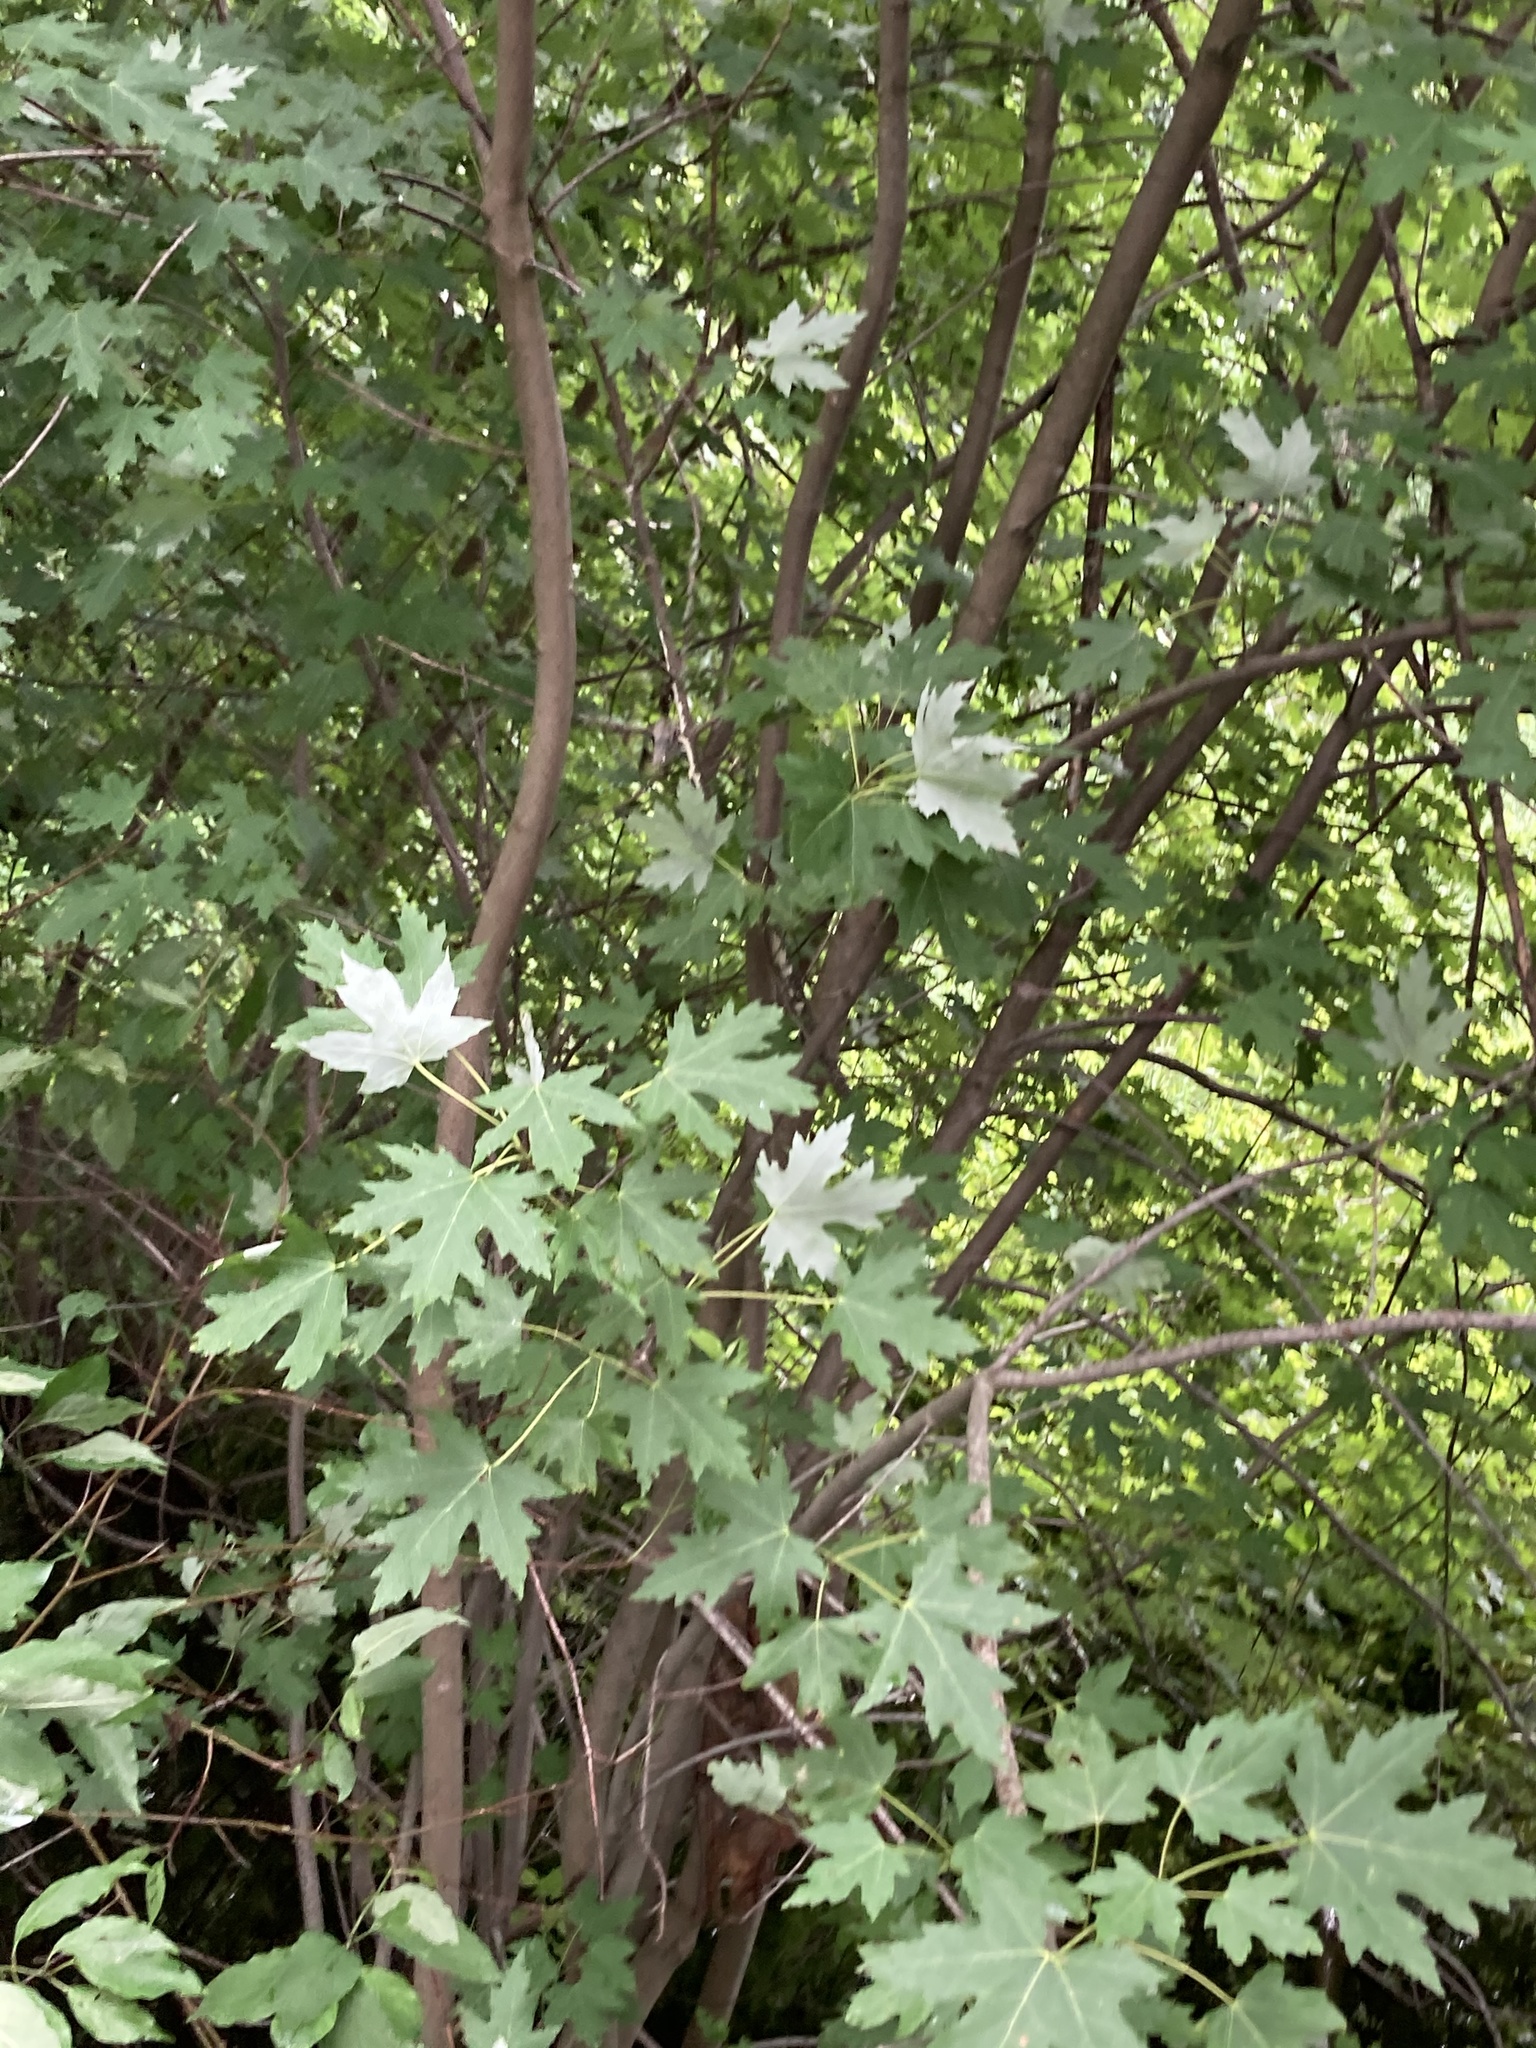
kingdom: Plantae
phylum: Tracheophyta
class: Magnoliopsida
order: Sapindales
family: Sapindaceae
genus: Acer
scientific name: Acer saccharinum
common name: Silver maple
